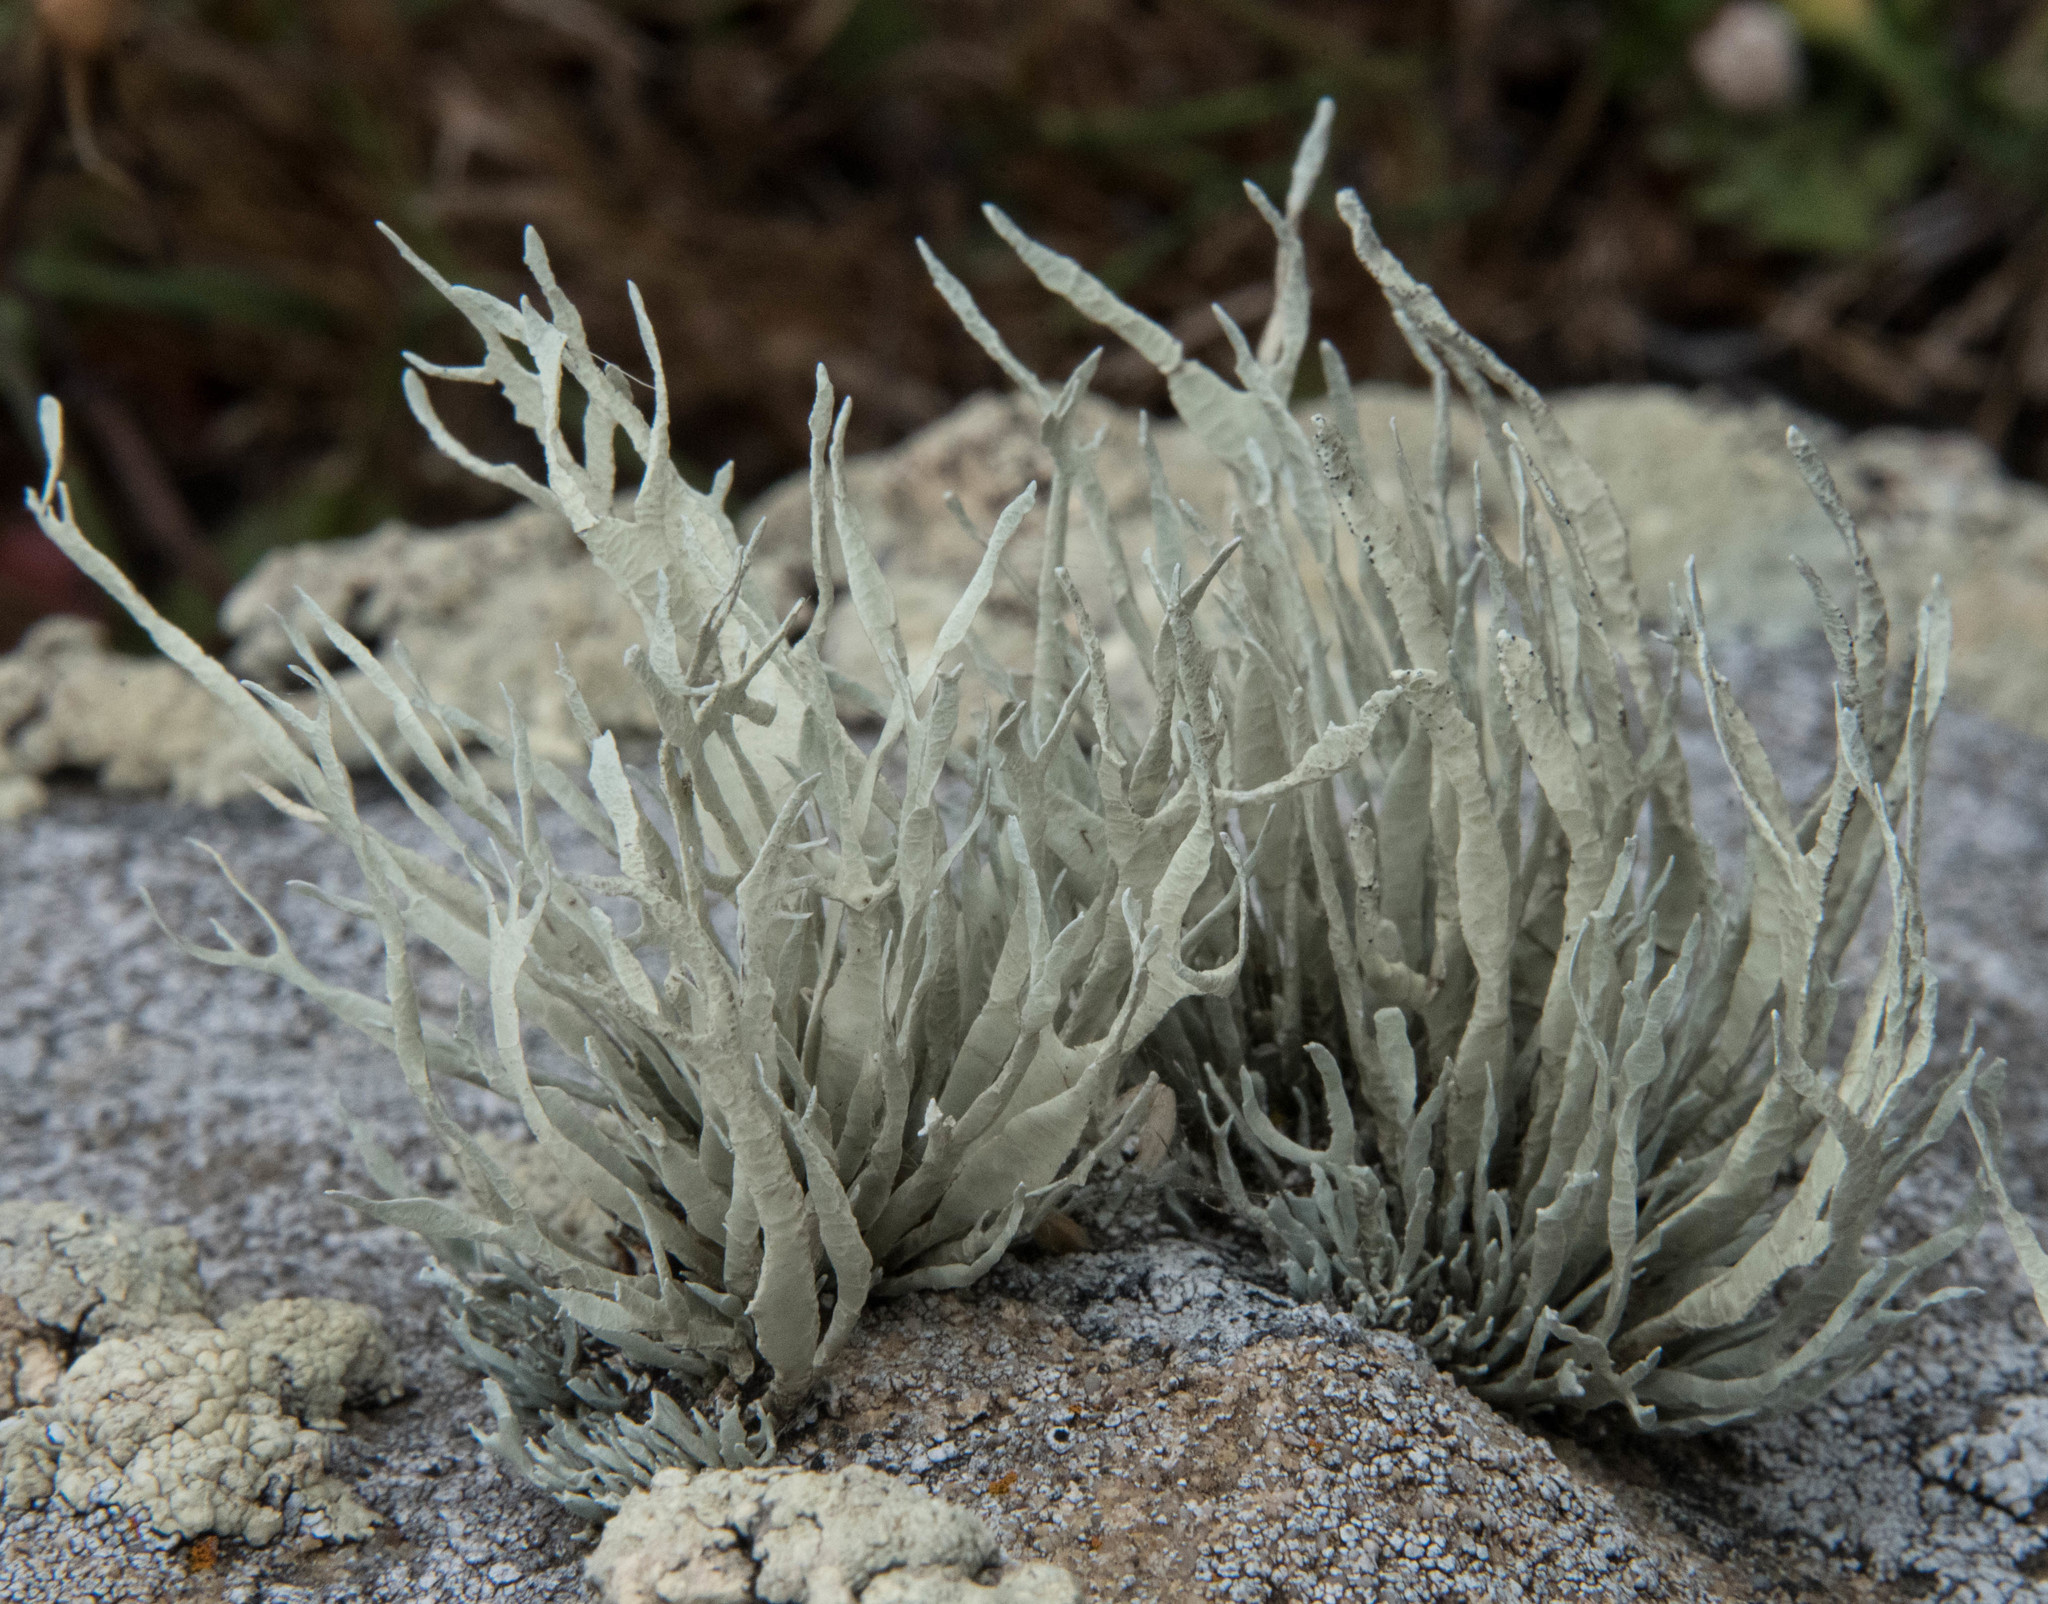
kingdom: Fungi
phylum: Ascomycota
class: Lecanoromycetes
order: Lecanorales
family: Ramalinaceae
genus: Niebla
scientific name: Niebla homalea
